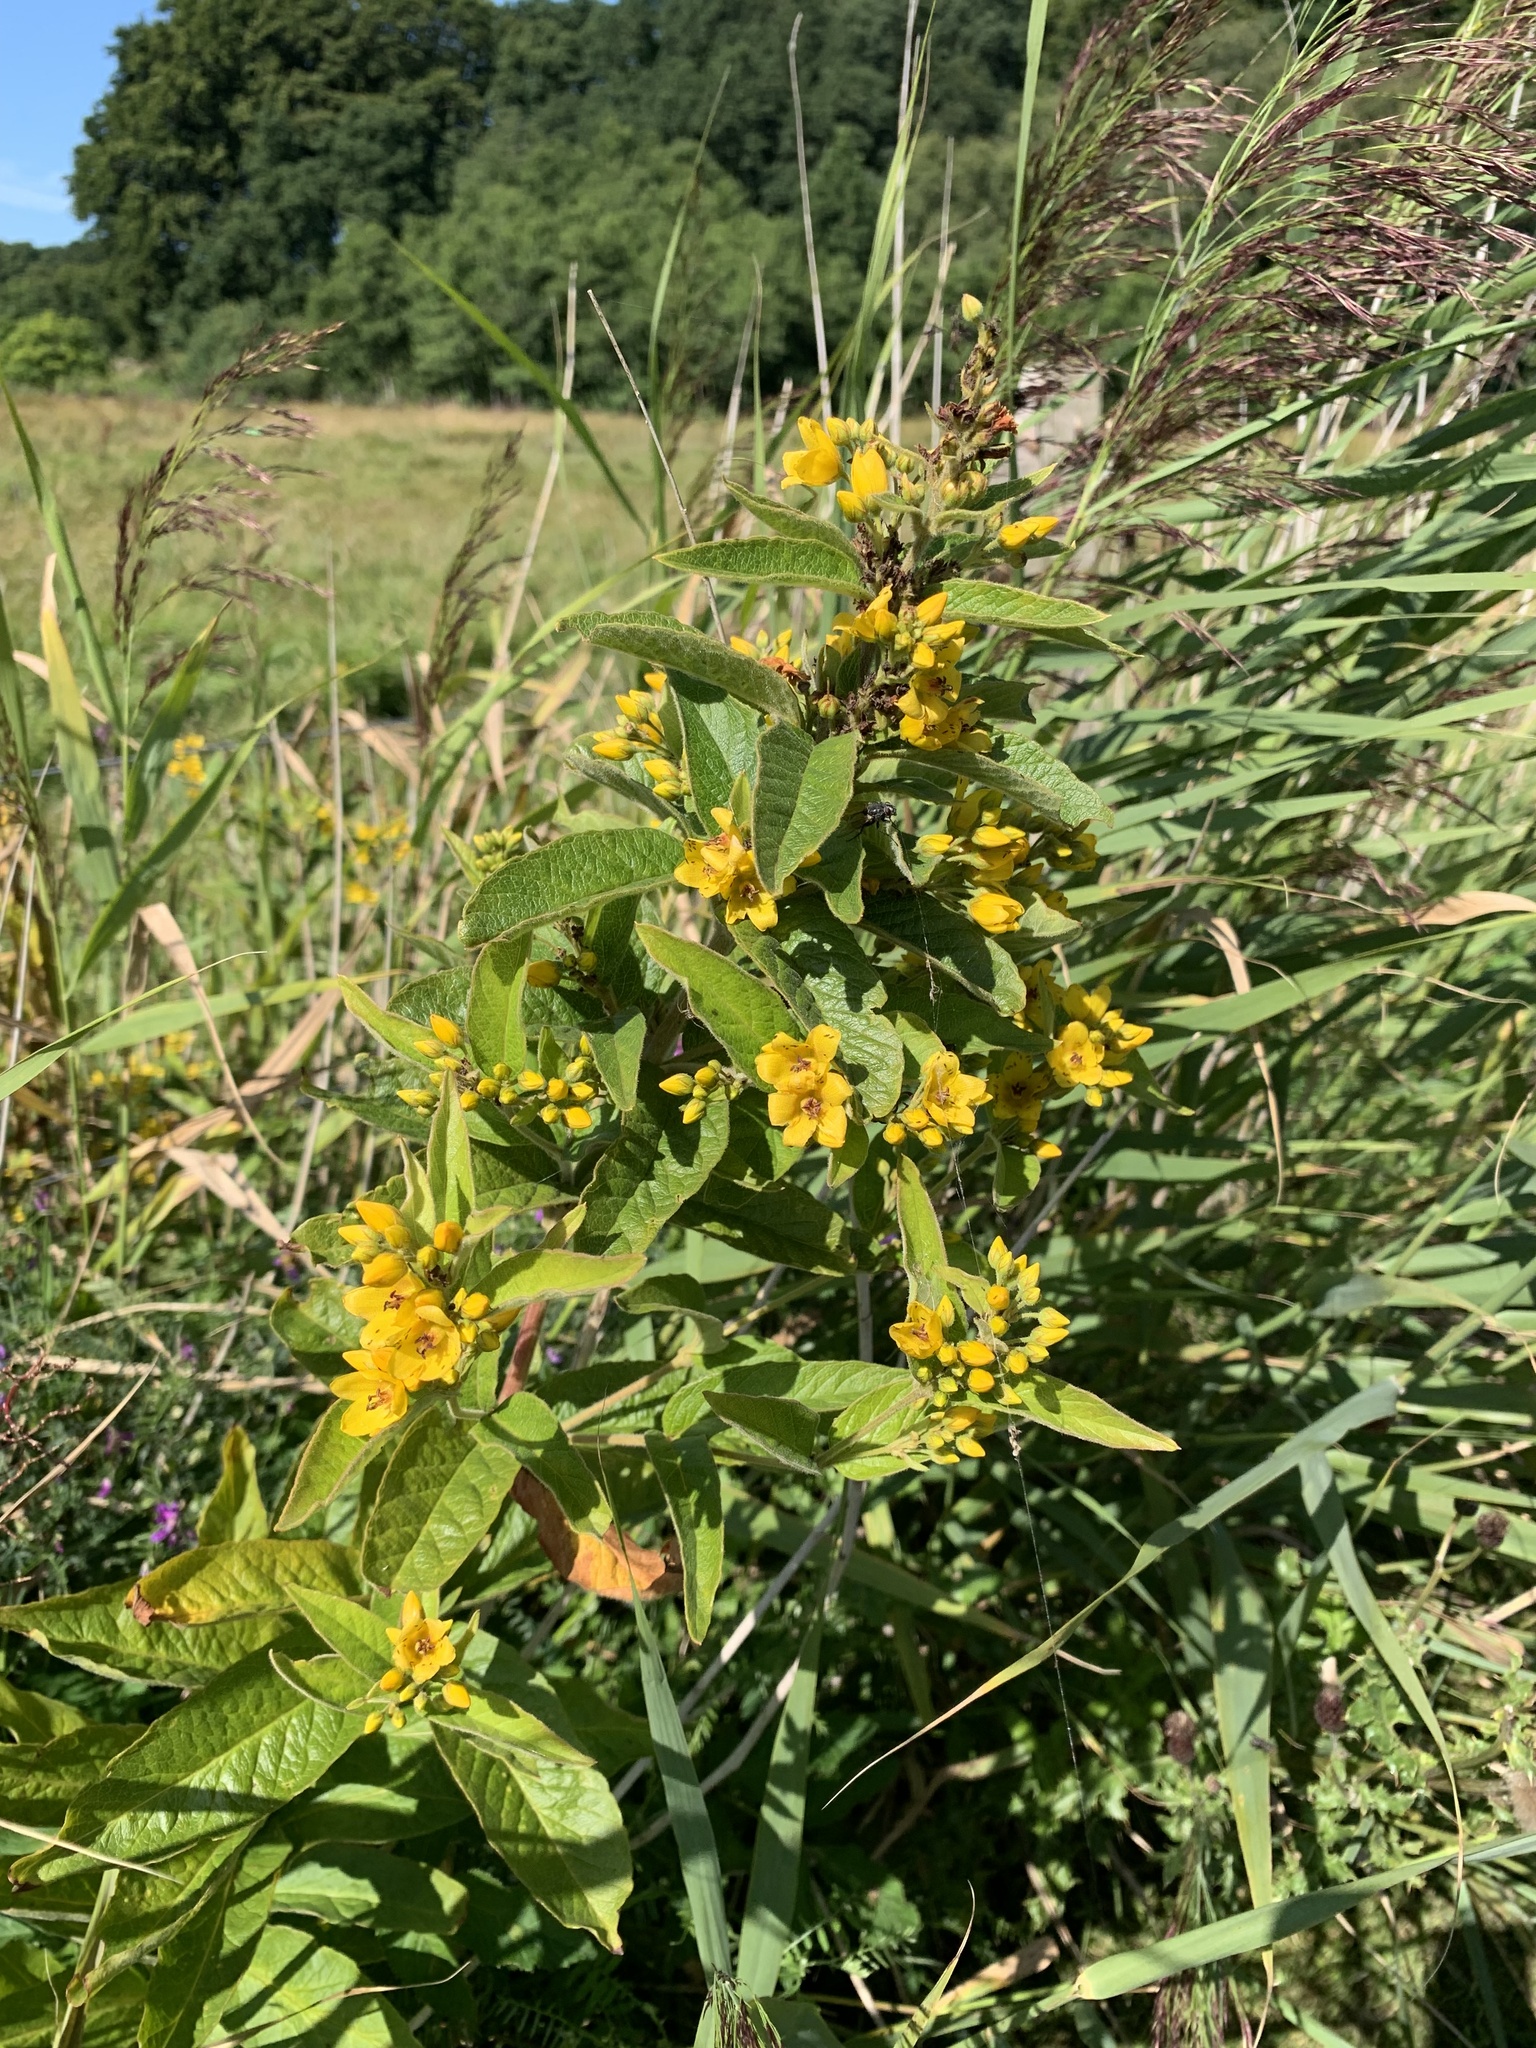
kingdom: Plantae
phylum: Tracheophyta
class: Magnoliopsida
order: Ericales
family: Primulaceae
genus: Lysimachia
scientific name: Lysimachia vulgaris
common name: Yellow loosestrife
